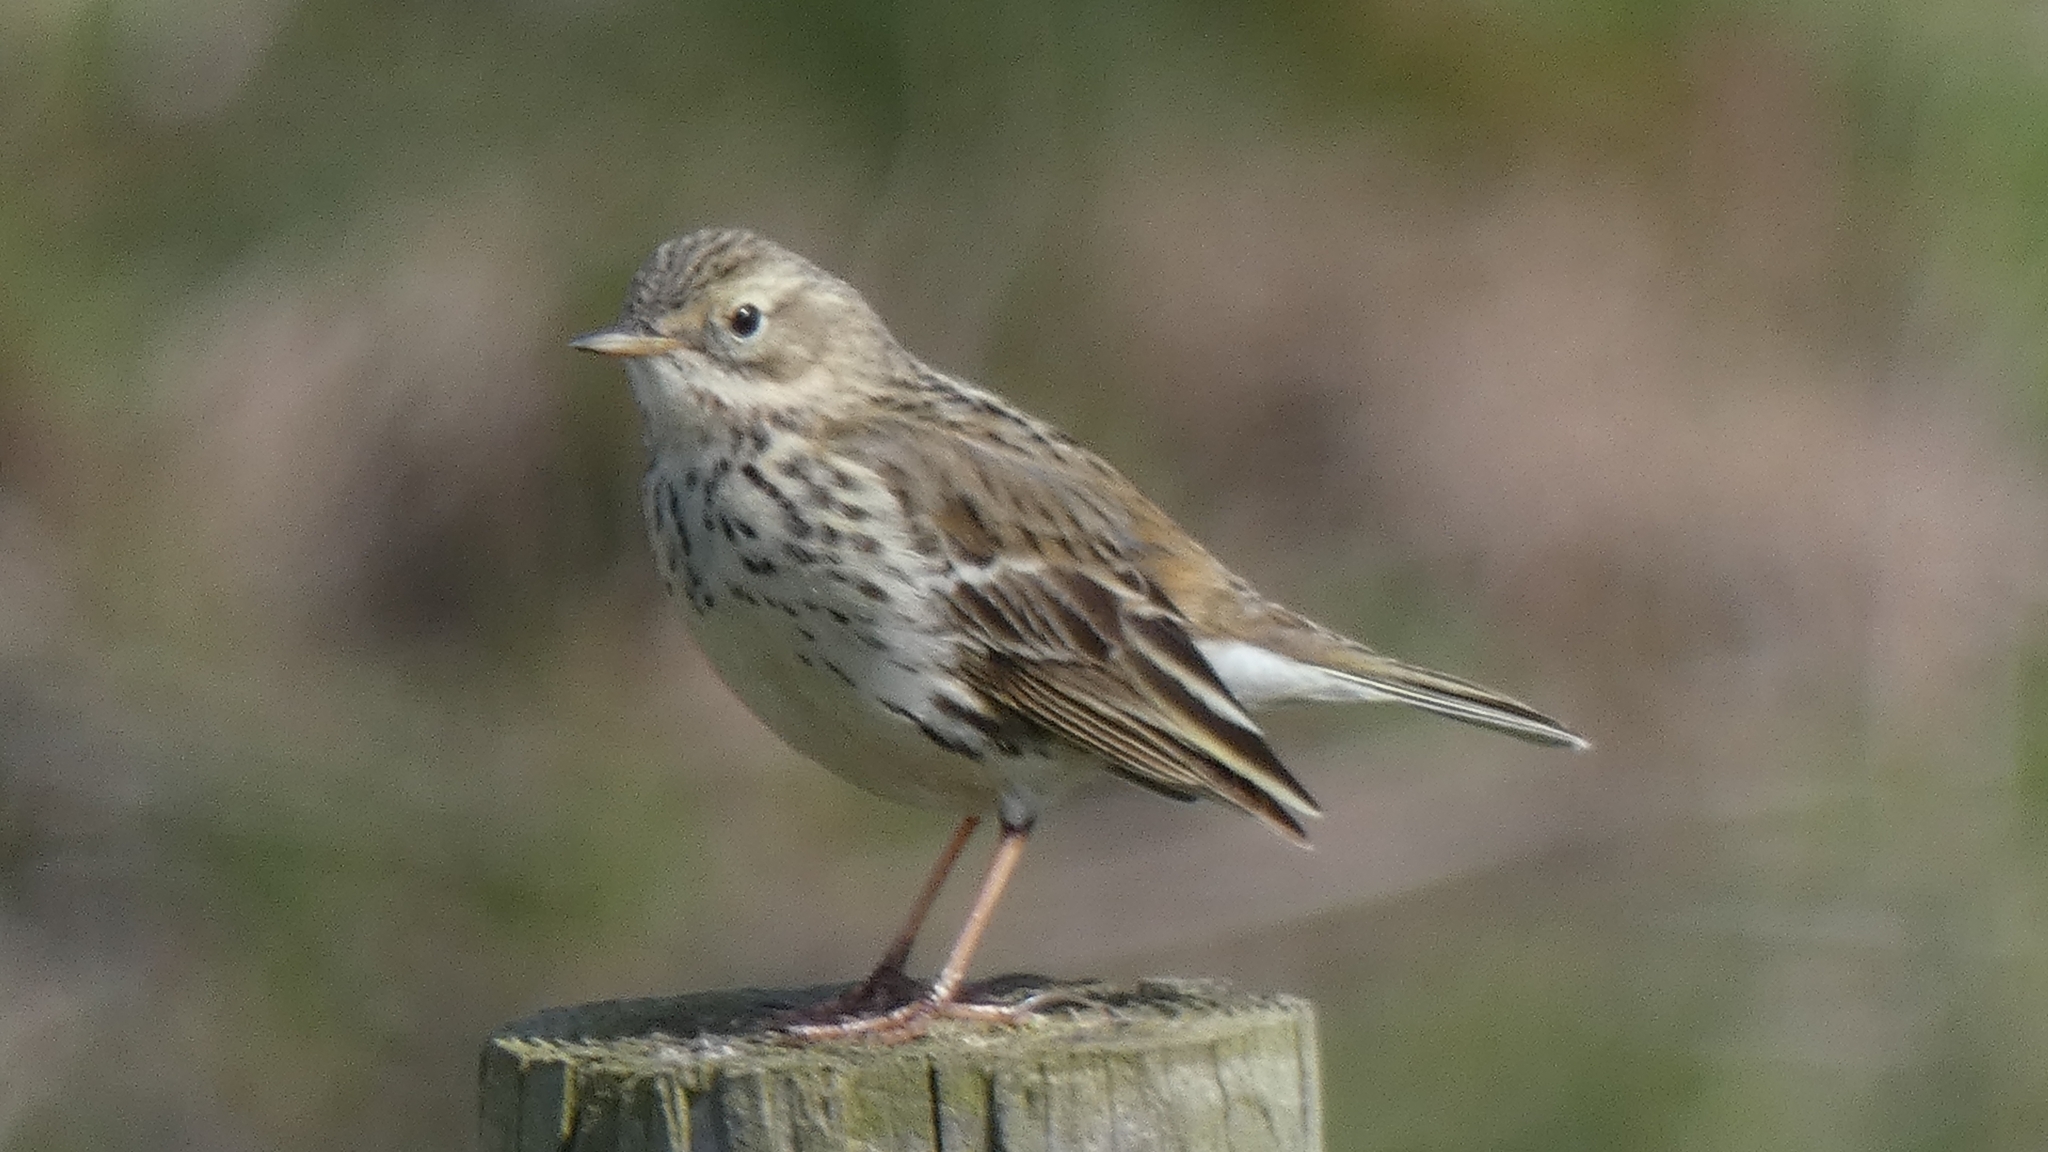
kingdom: Animalia
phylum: Chordata
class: Aves
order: Passeriformes
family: Motacillidae
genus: Anthus
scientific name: Anthus pratensis
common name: Meadow pipit
